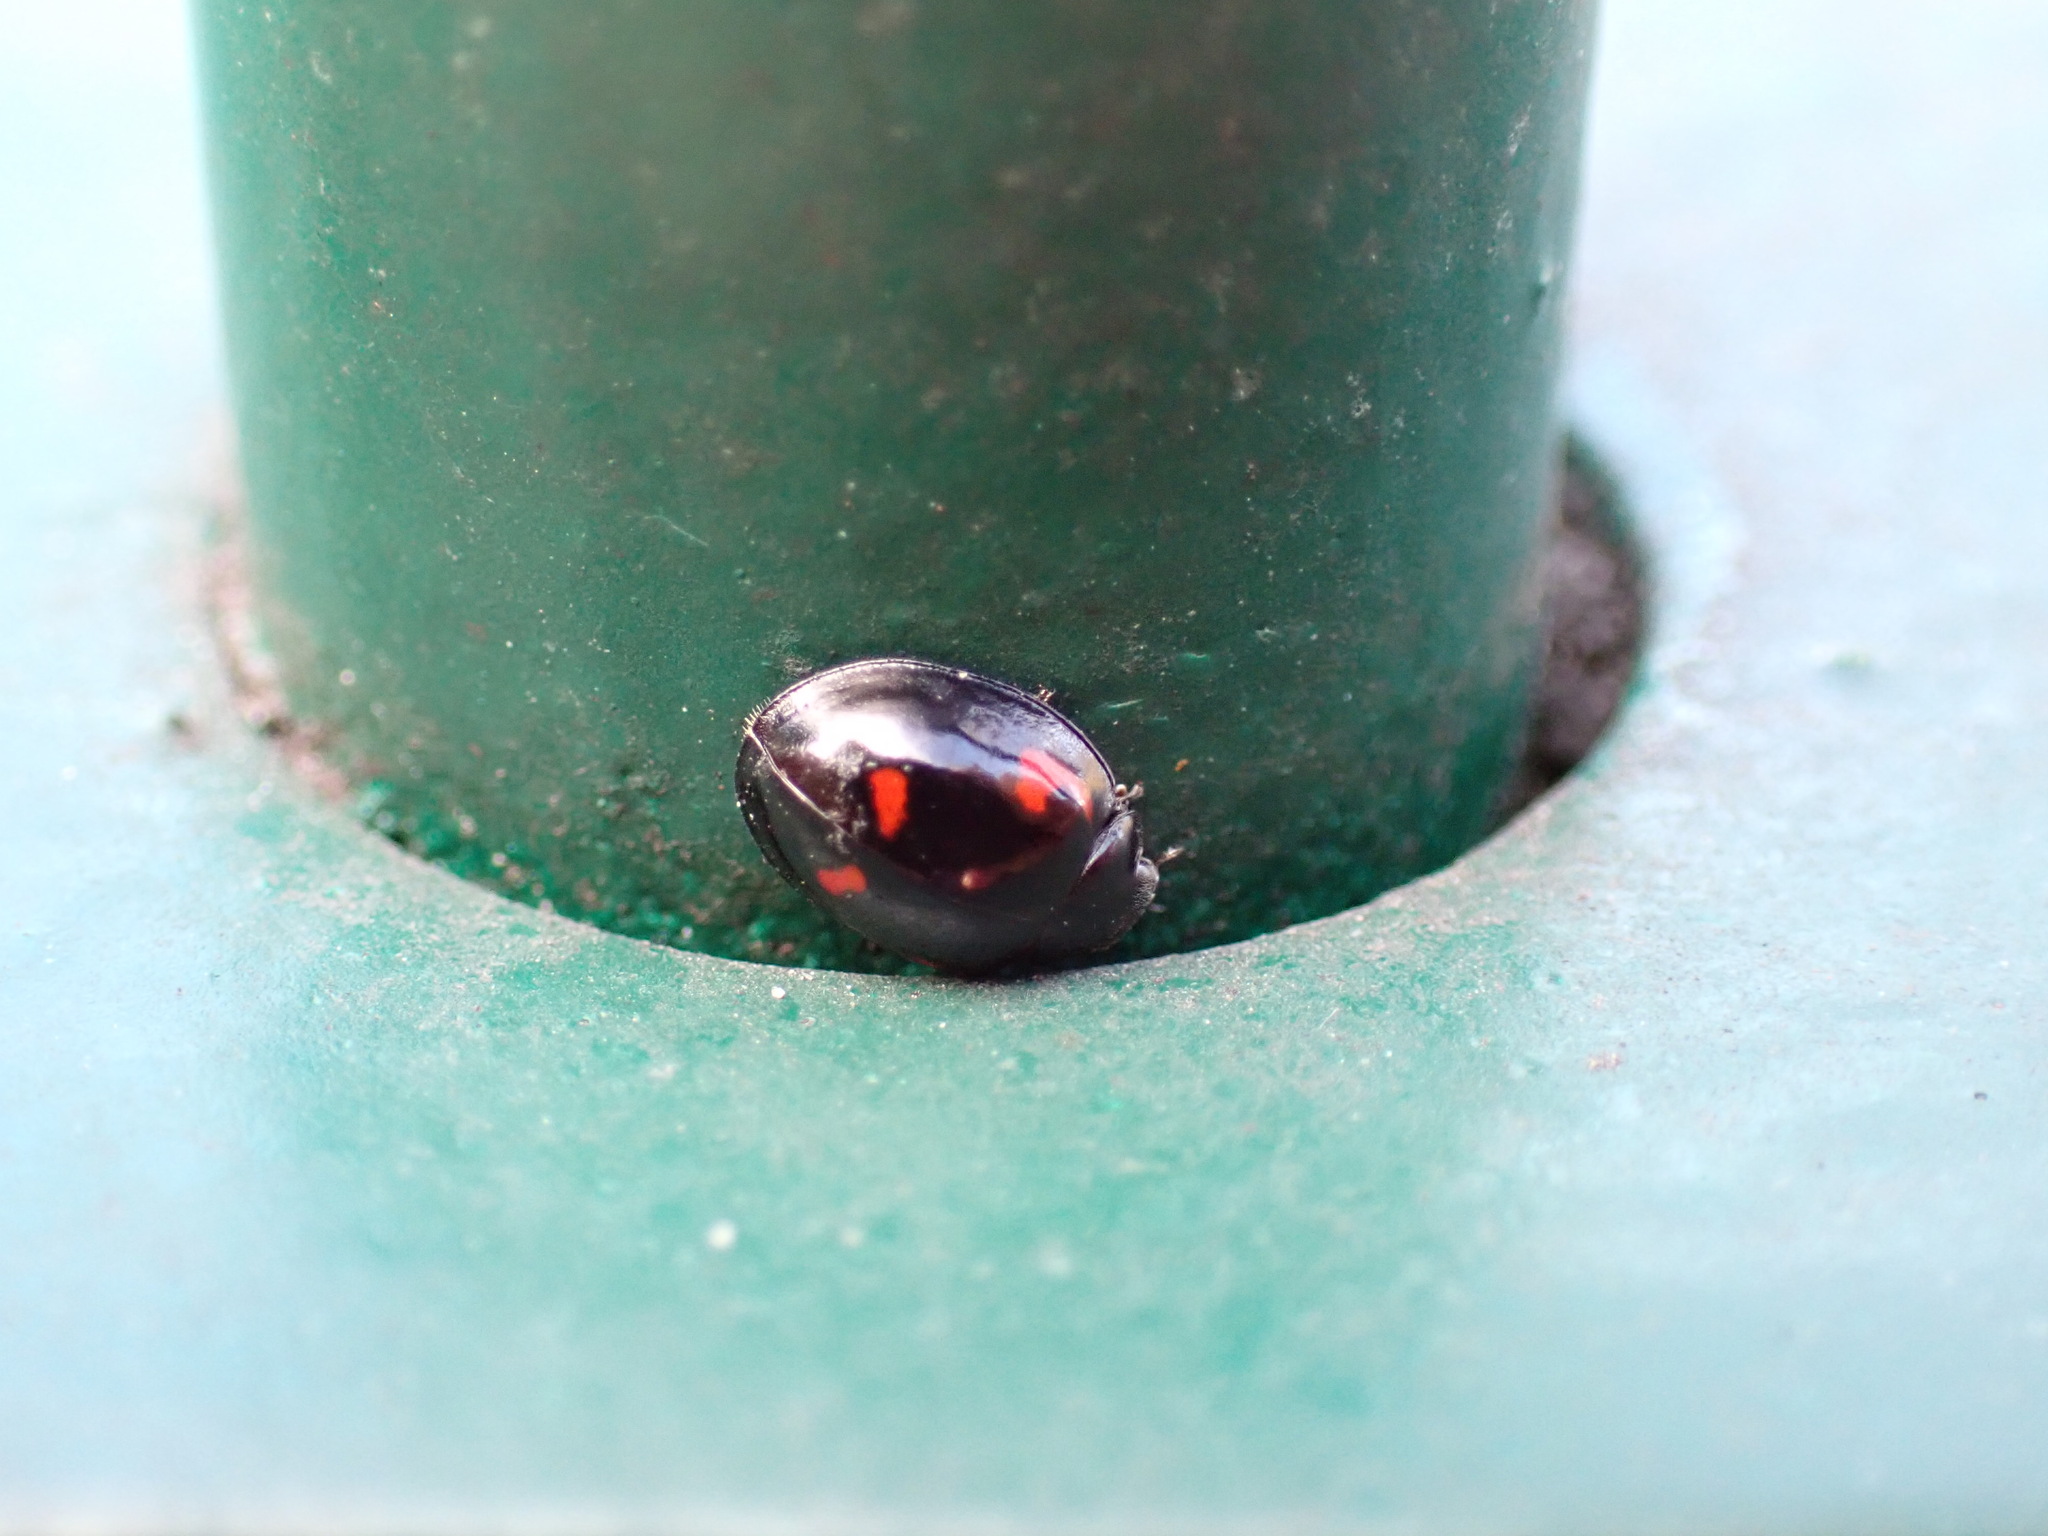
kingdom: Animalia
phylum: Arthropoda
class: Insecta
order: Coleoptera
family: Coccinellidae
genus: Brumus
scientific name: Brumus quadripustulatus
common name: Ladybird beetle
